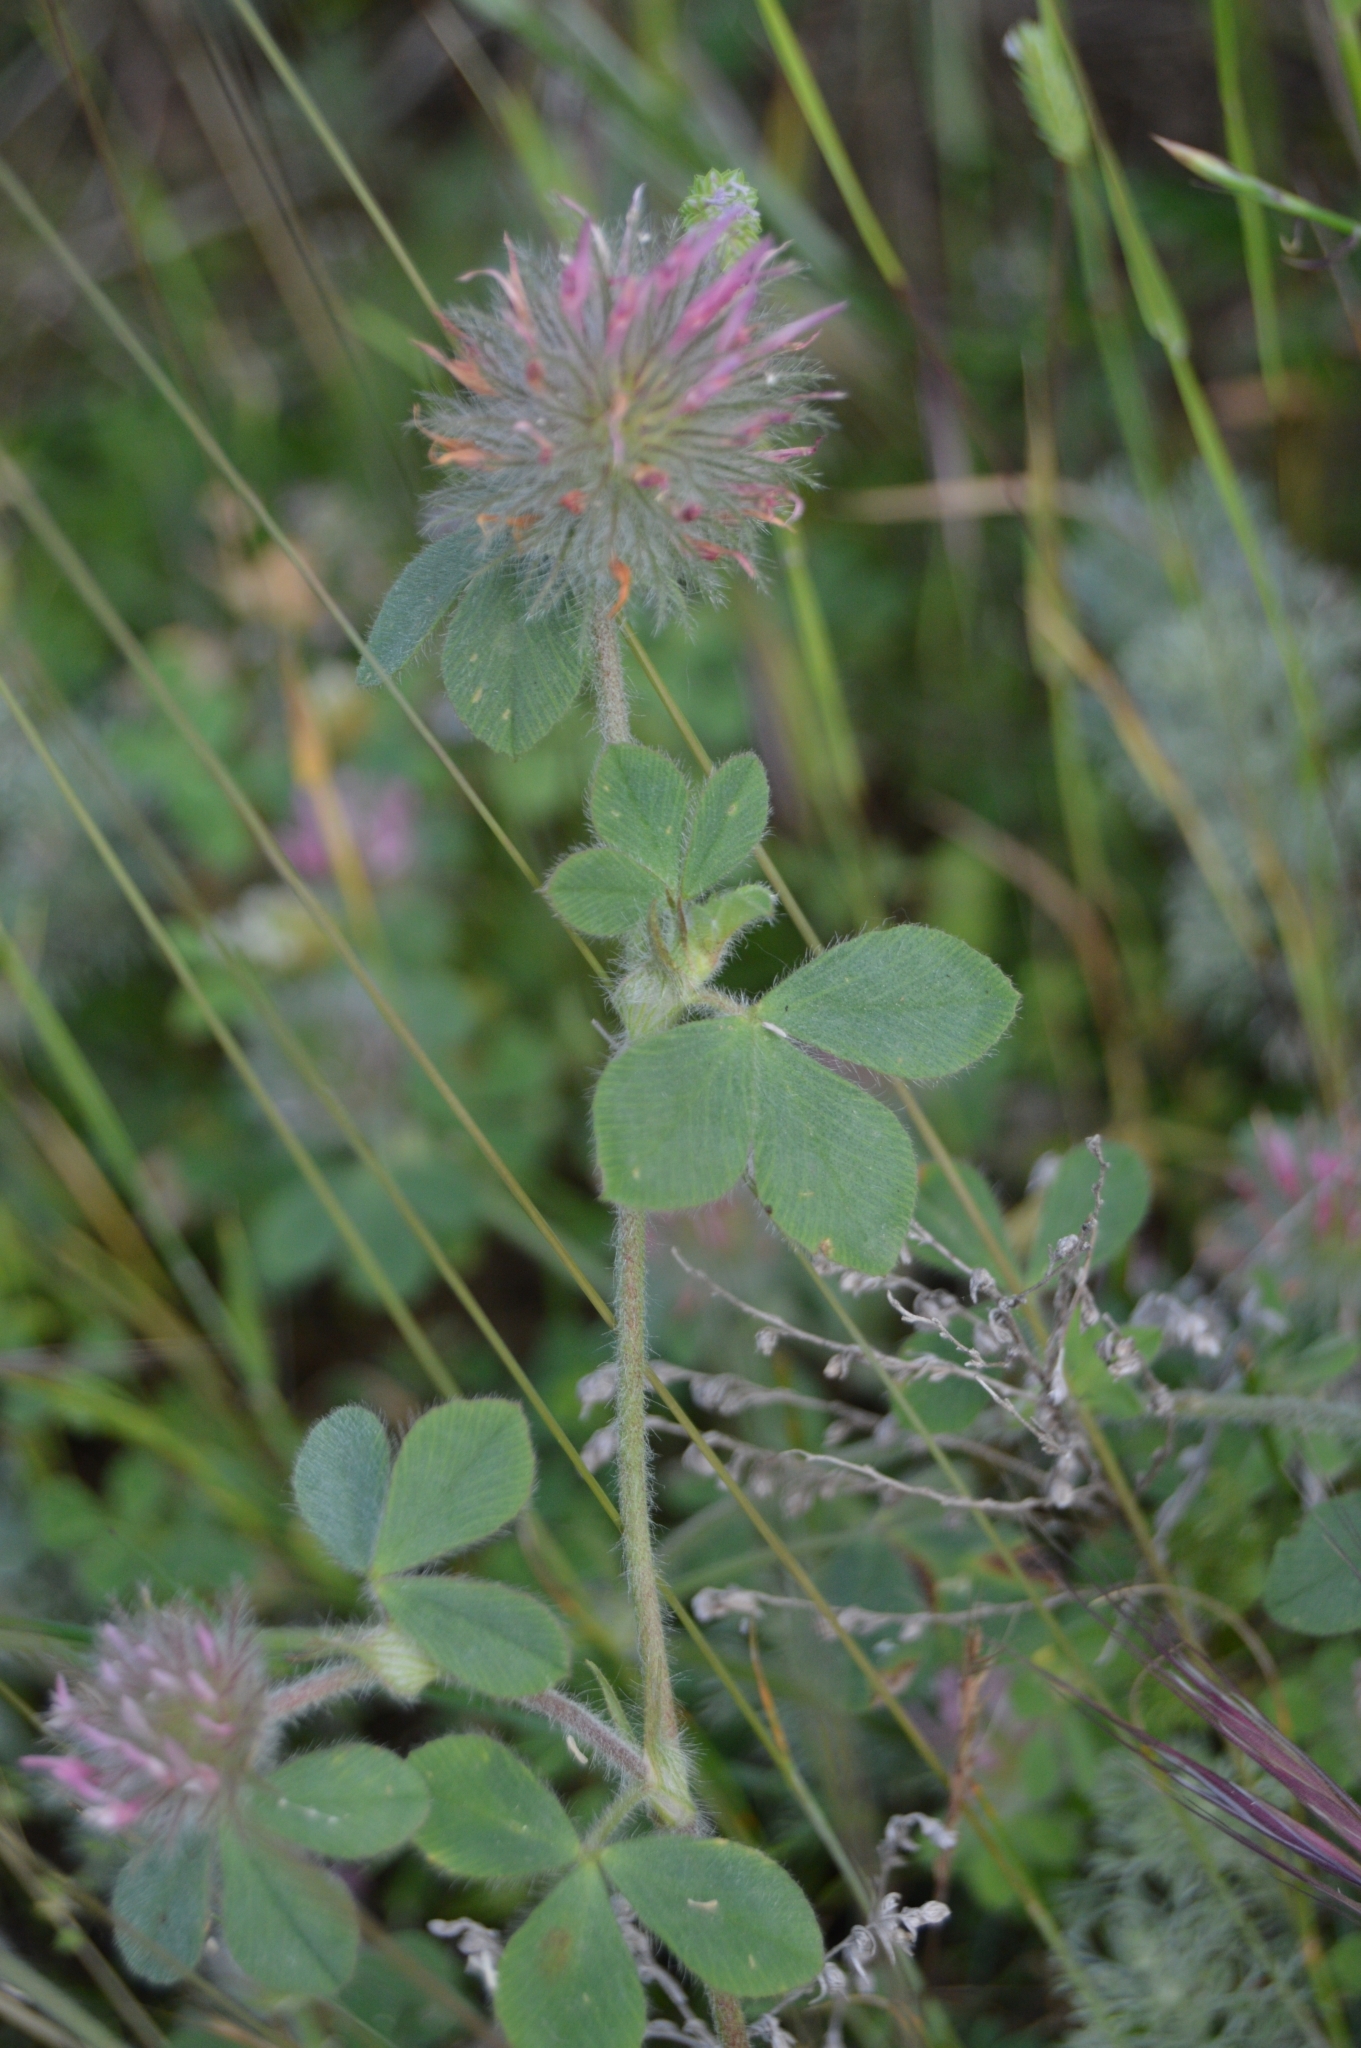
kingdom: Plantae
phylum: Tracheophyta
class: Magnoliopsida
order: Fabales
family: Fabaceae
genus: Trifolium
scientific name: Trifolium hirtum
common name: Rose clover
